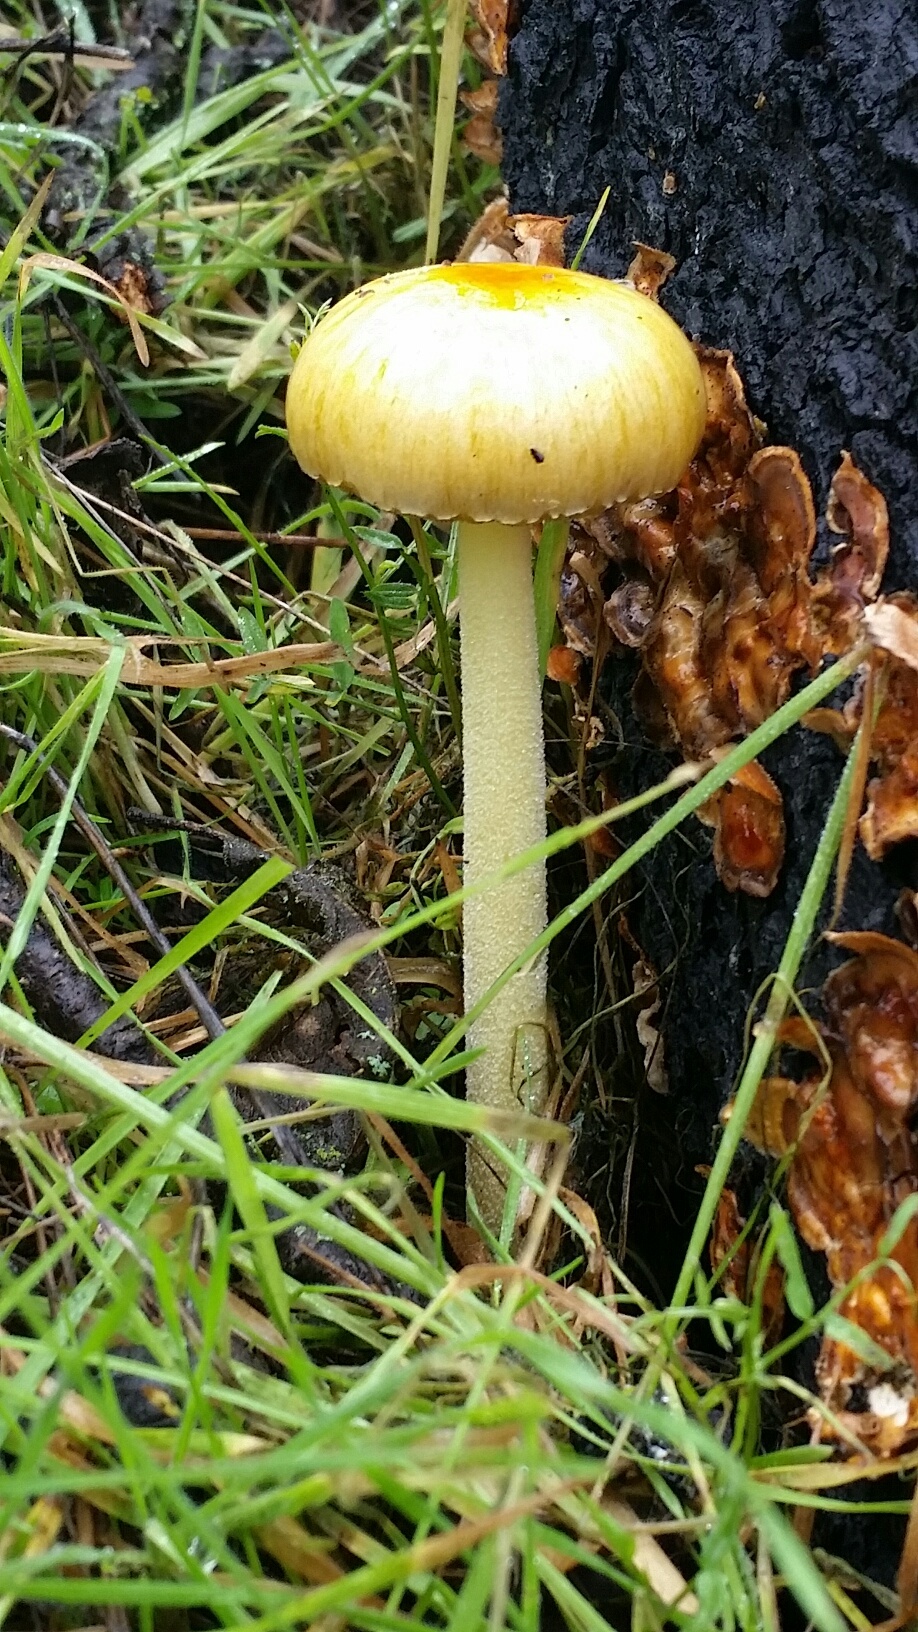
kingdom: Fungi
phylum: Basidiomycota
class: Agaricomycetes
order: Agaricales
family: Bolbitiaceae
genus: Bolbitius
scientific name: Bolbitius titubans
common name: Yellow fieldcap
